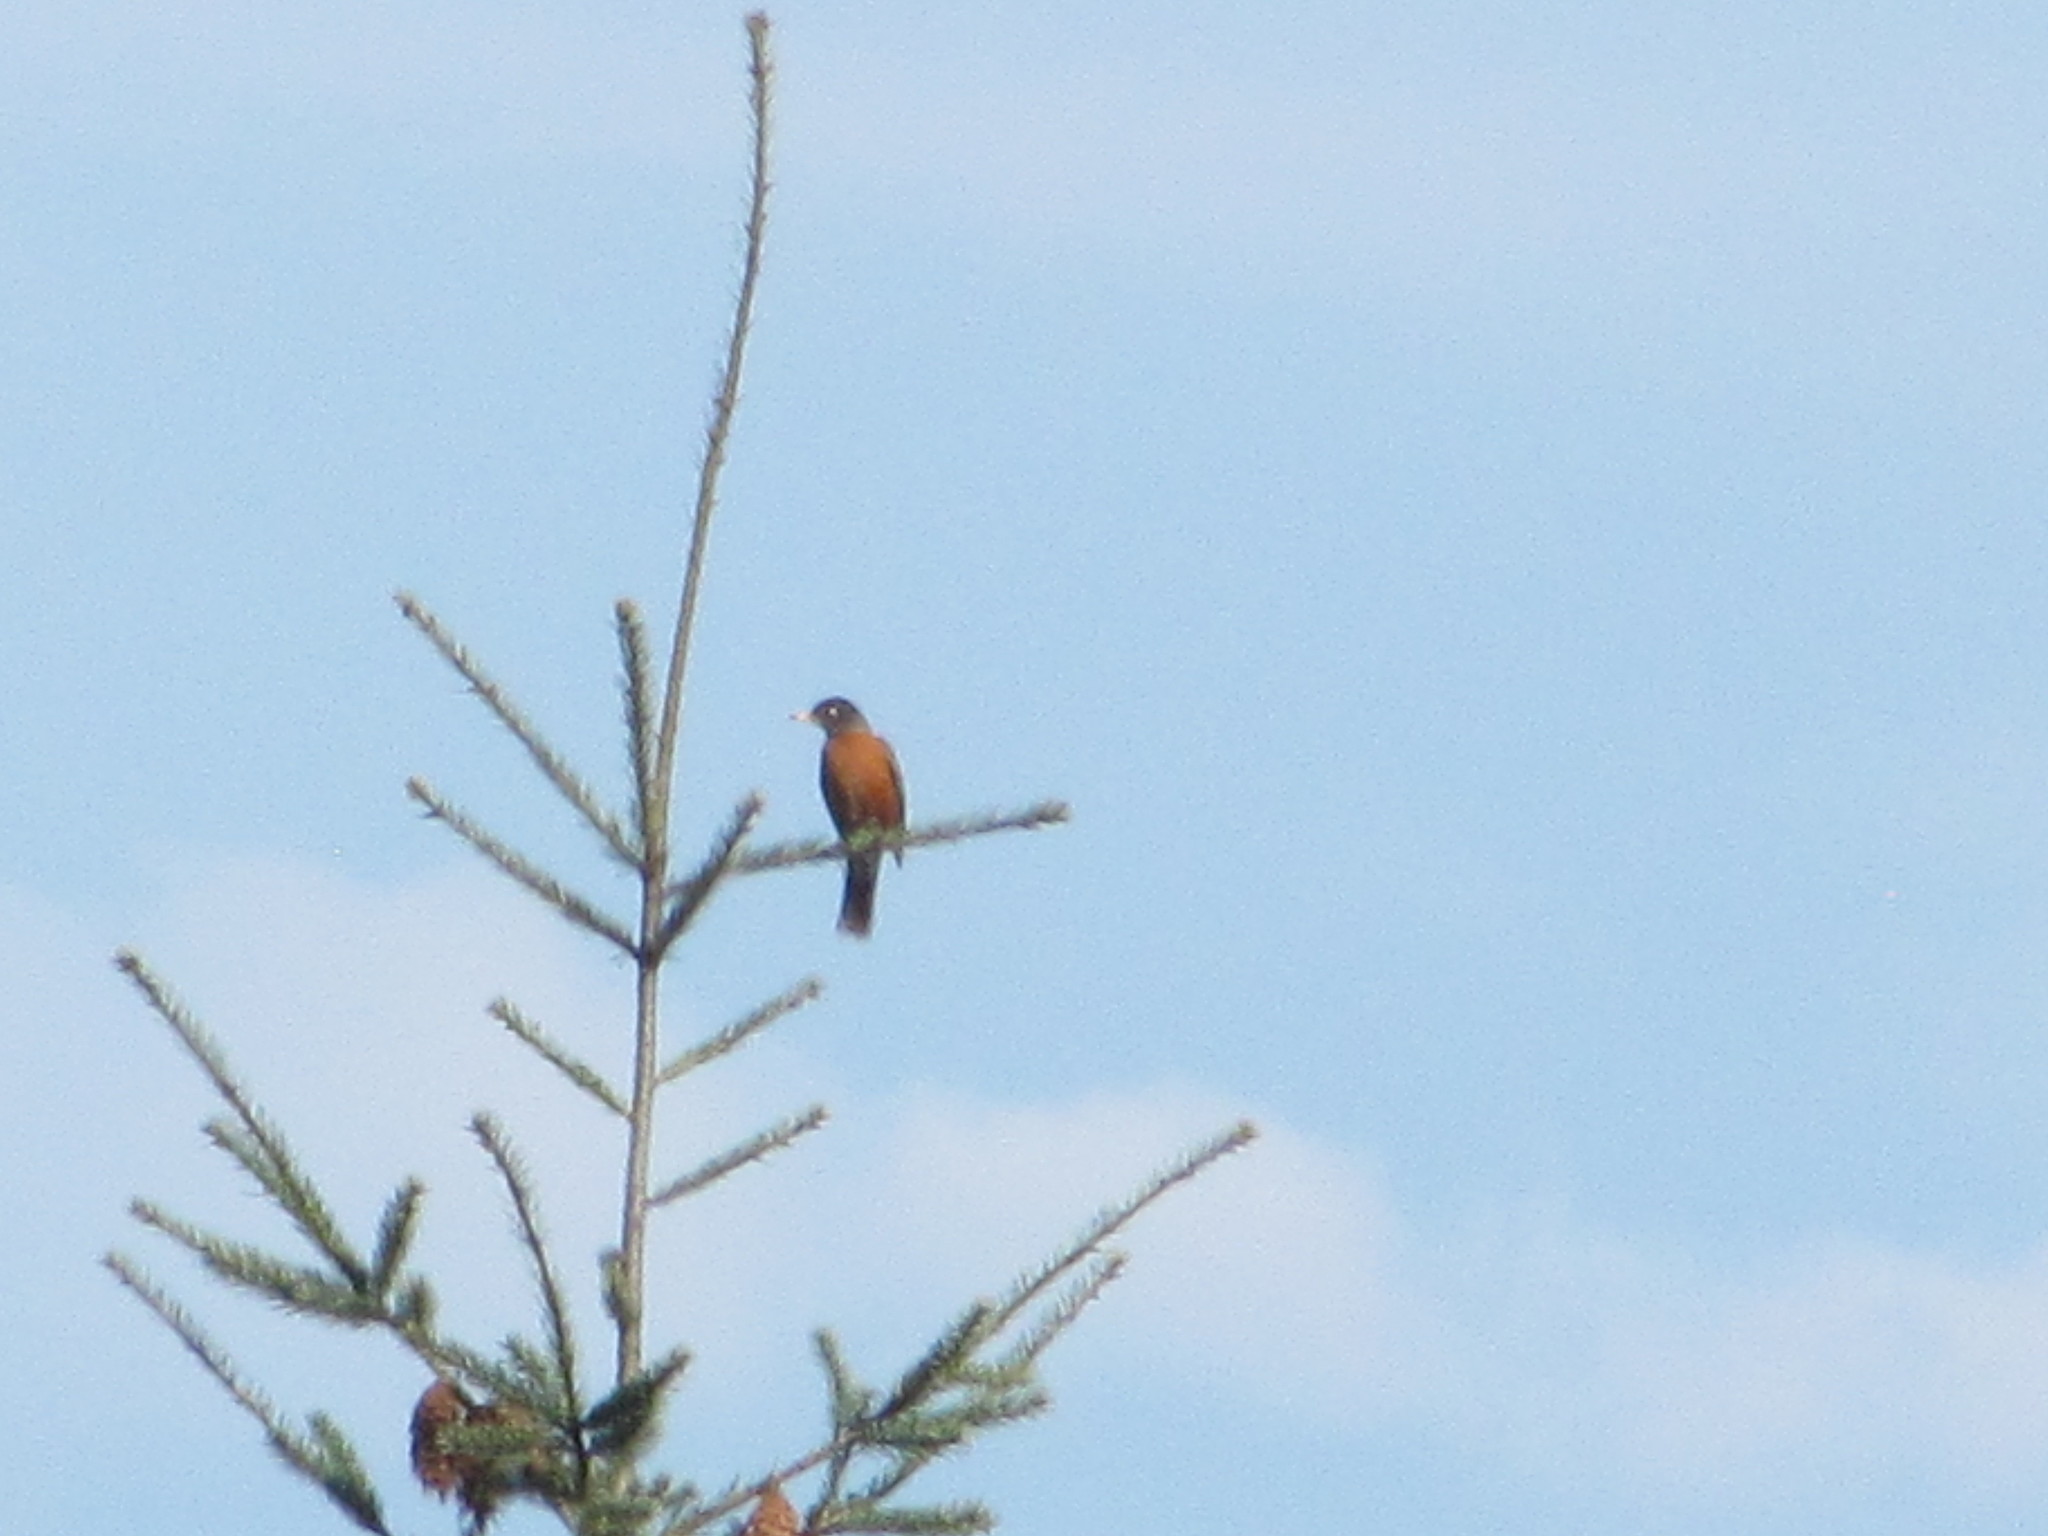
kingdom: Animalia
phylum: Chordata
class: Aves
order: Passeriformes
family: Turdidae
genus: Turdus
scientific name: Turdus migratorius
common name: American robin
